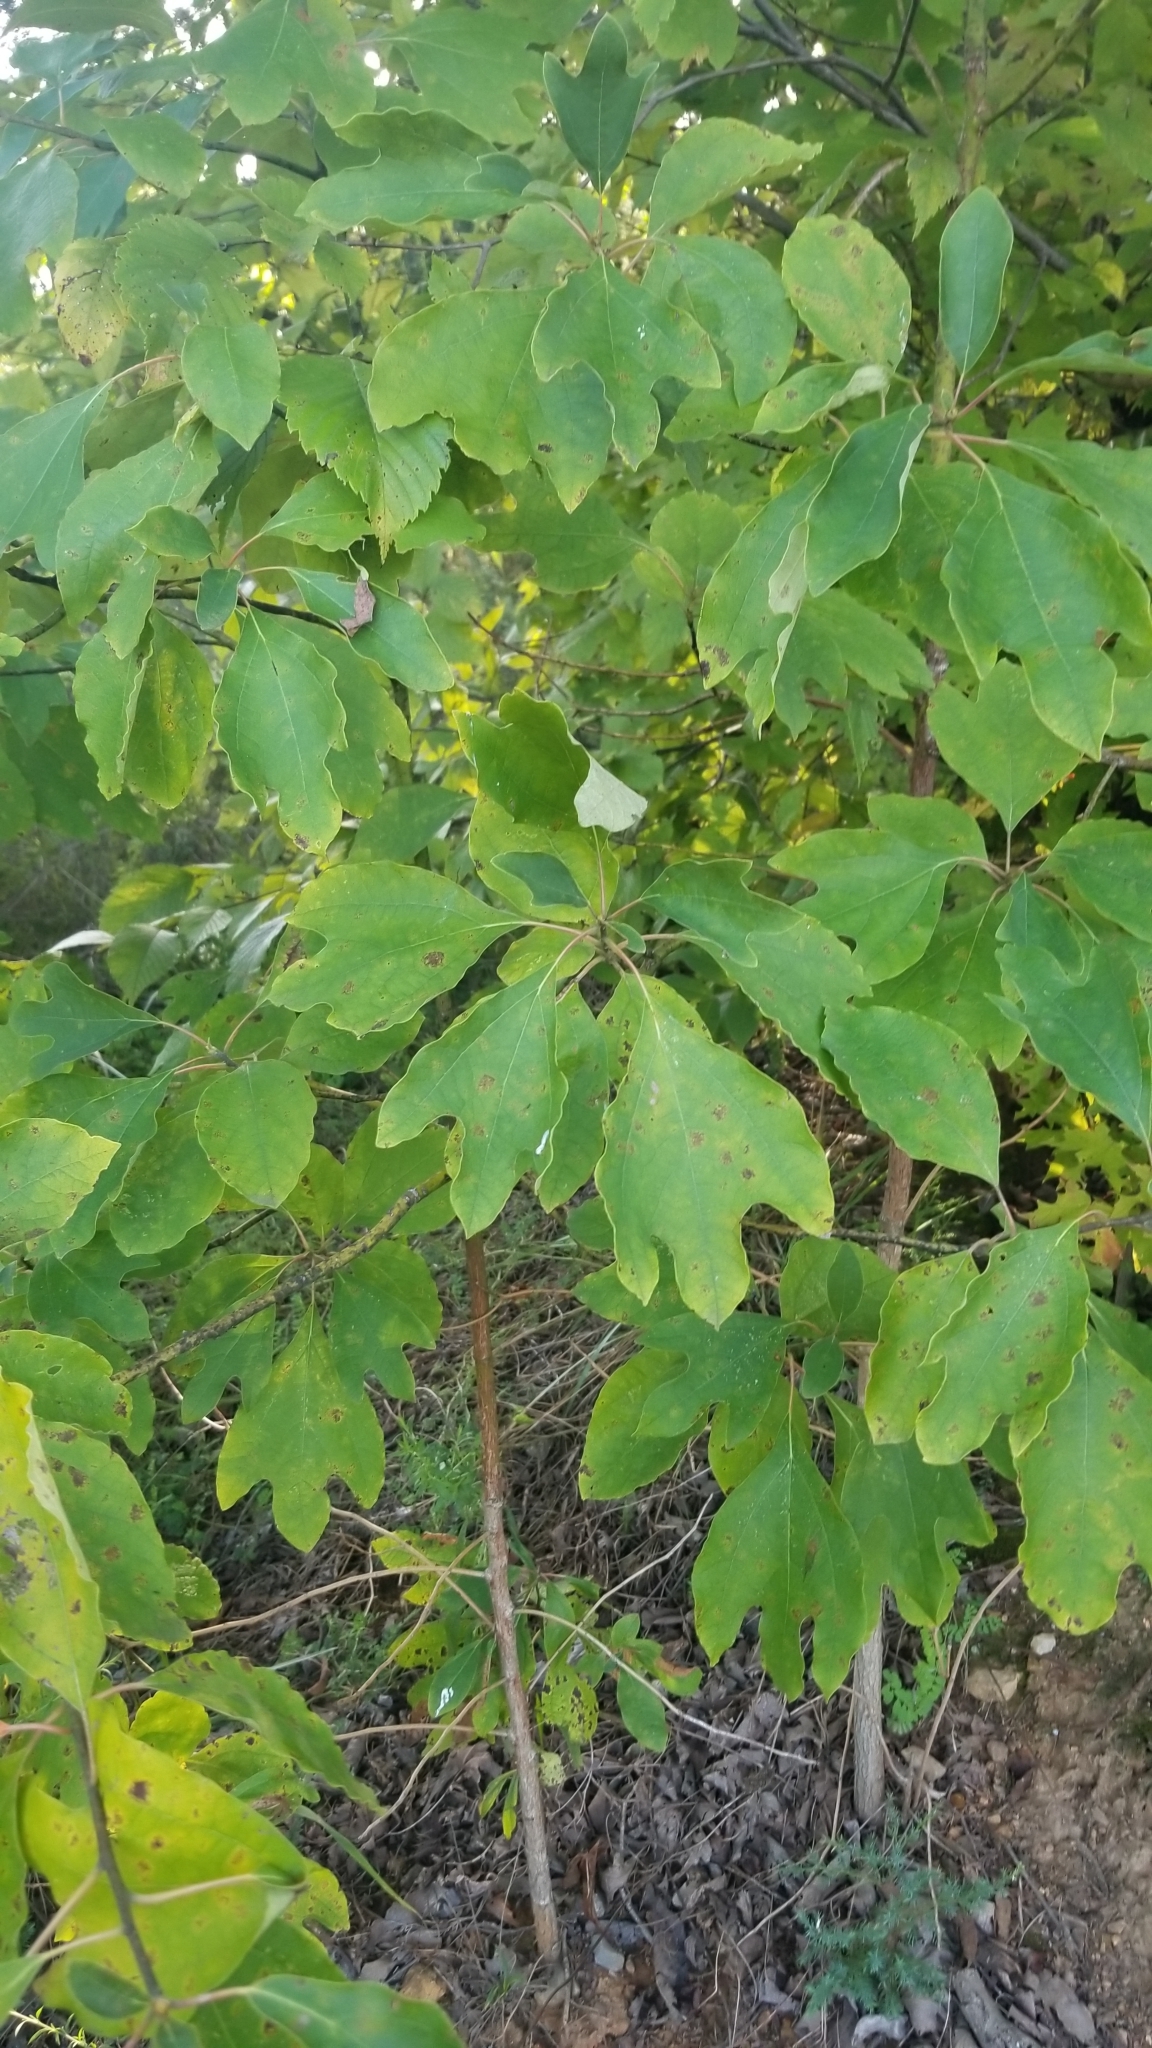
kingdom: Plantae
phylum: Tracheophyta
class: Magnoliopsida
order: Laurales
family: Lauraceae
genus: Sassafras
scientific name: Sassafras albidum
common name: Sassafras
